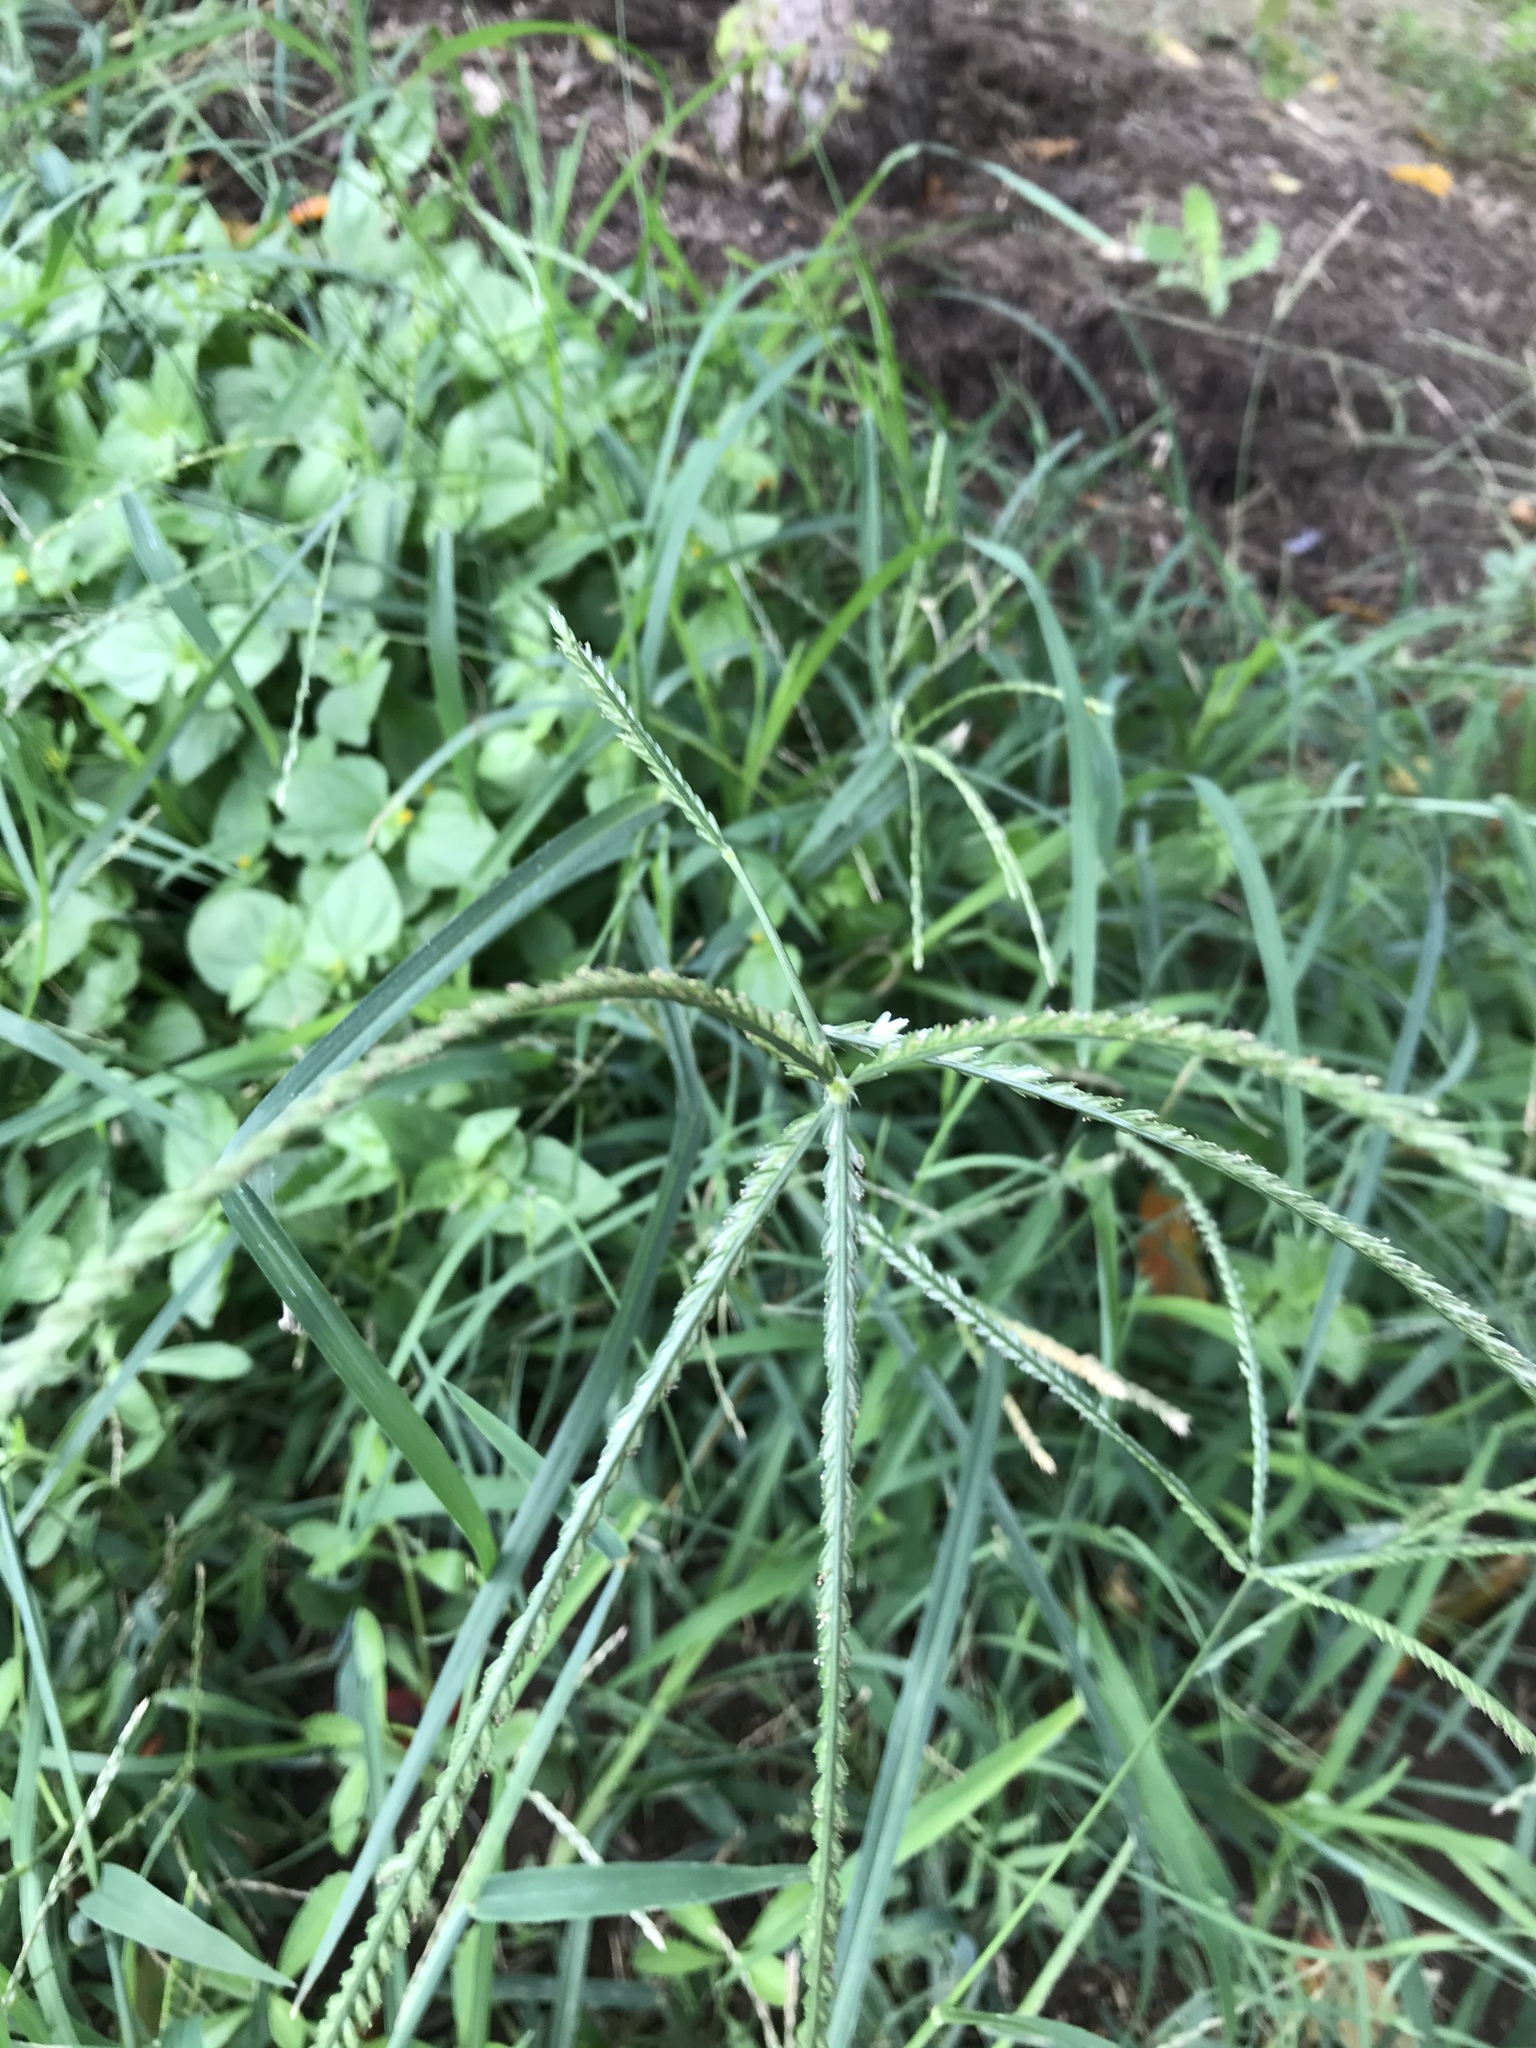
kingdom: Plantae
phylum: Tracheophyta
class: Liliopsida
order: Poales
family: Poaceae
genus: Eleusine
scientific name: Eleusine indica
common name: Yard-grass
